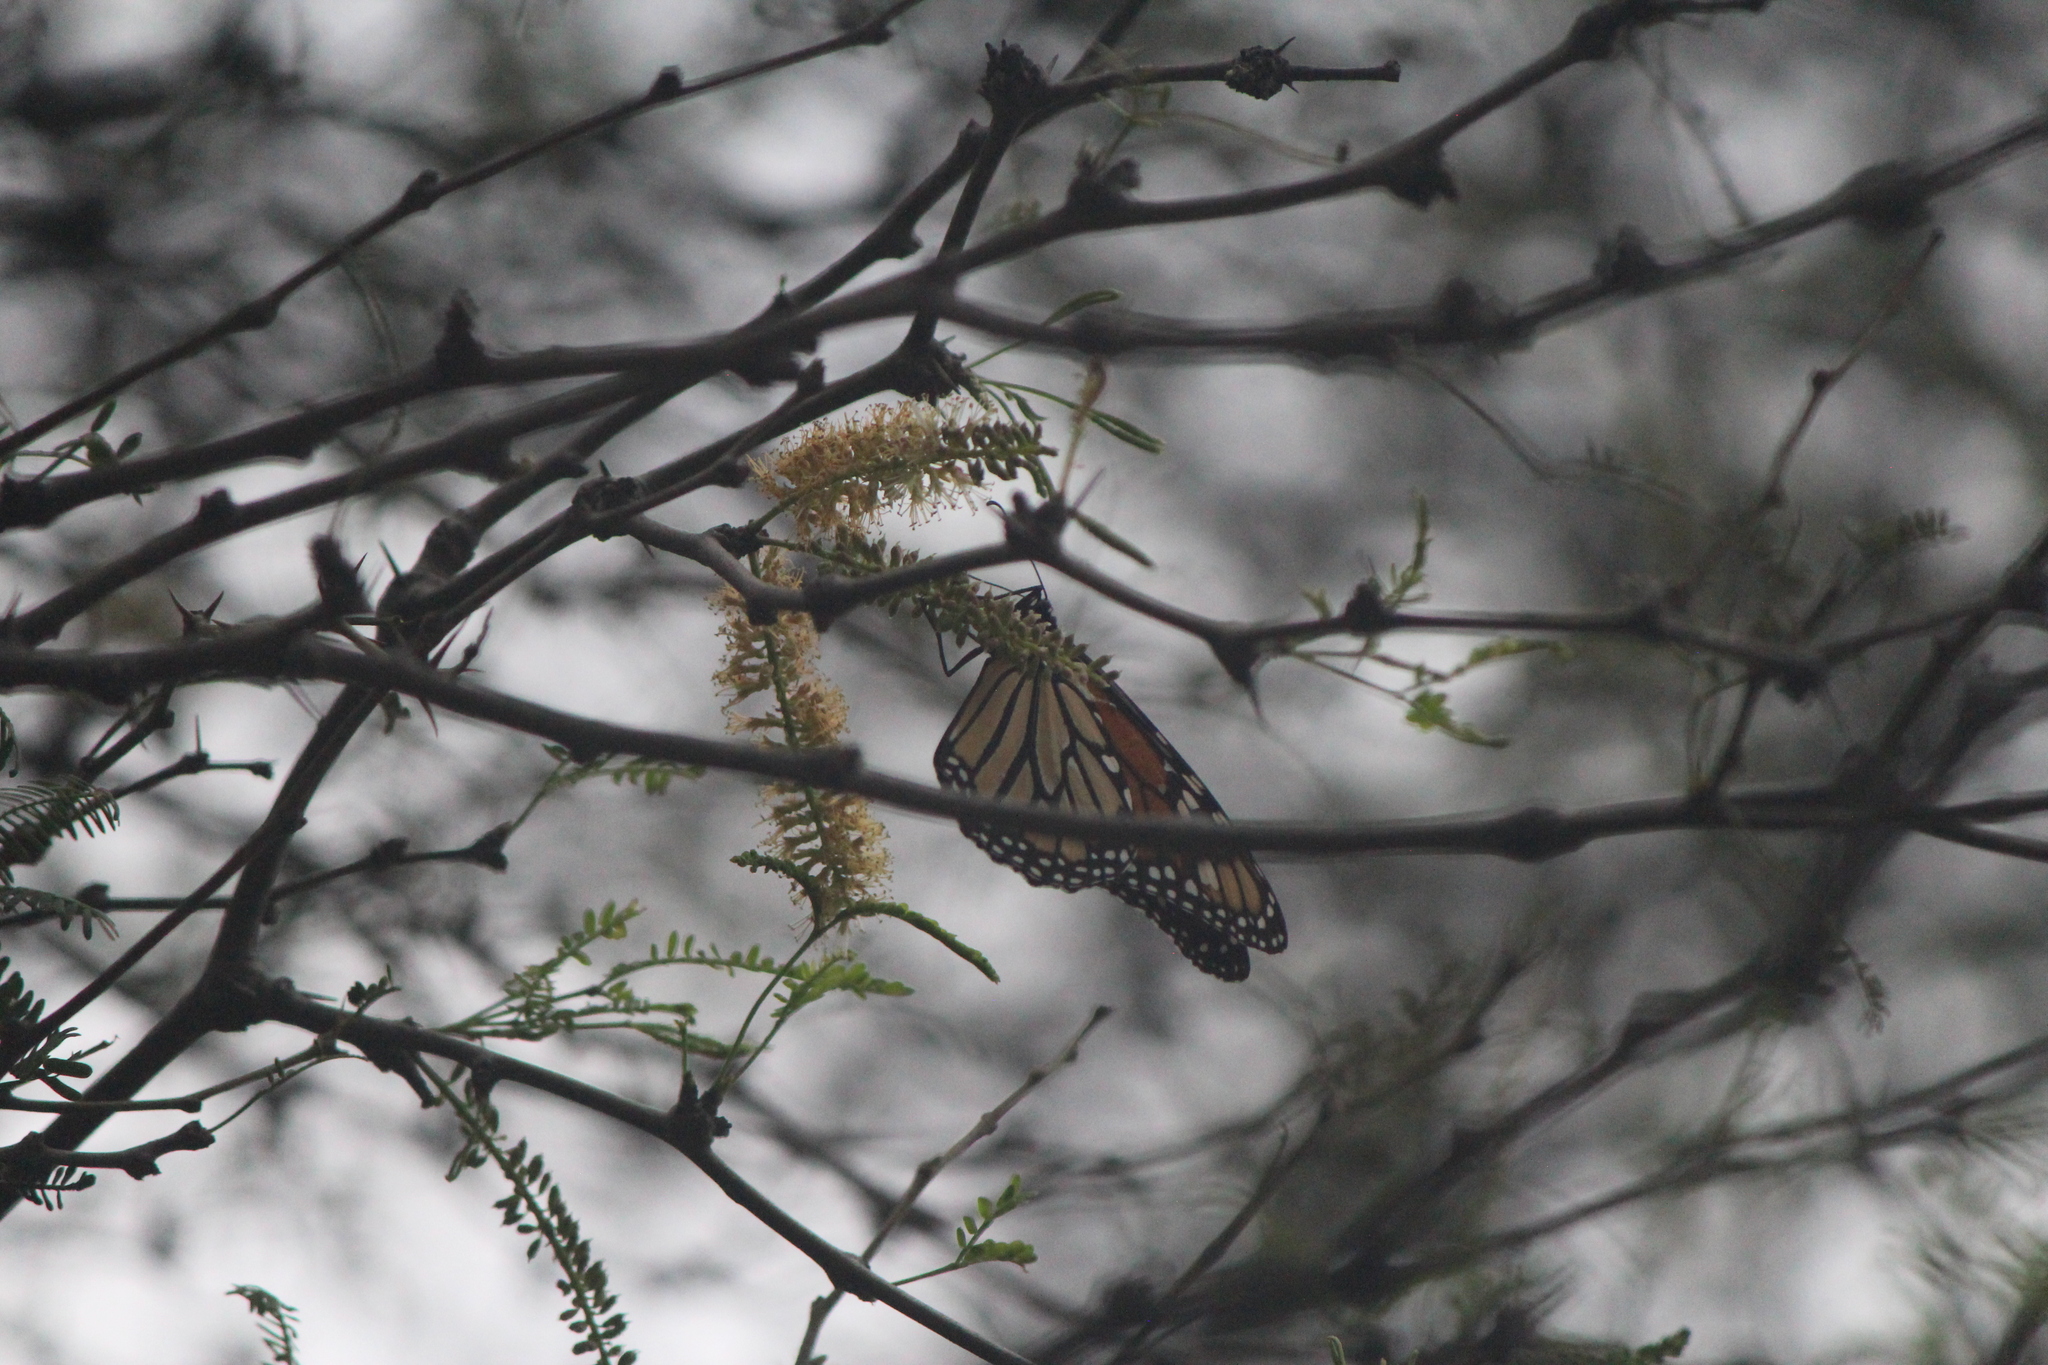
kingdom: Animalia
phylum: Arthropoda
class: Insecta
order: Lepidoptera
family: Nymphalidae
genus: Danaus
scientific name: Danaus plexippus
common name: Monarch
